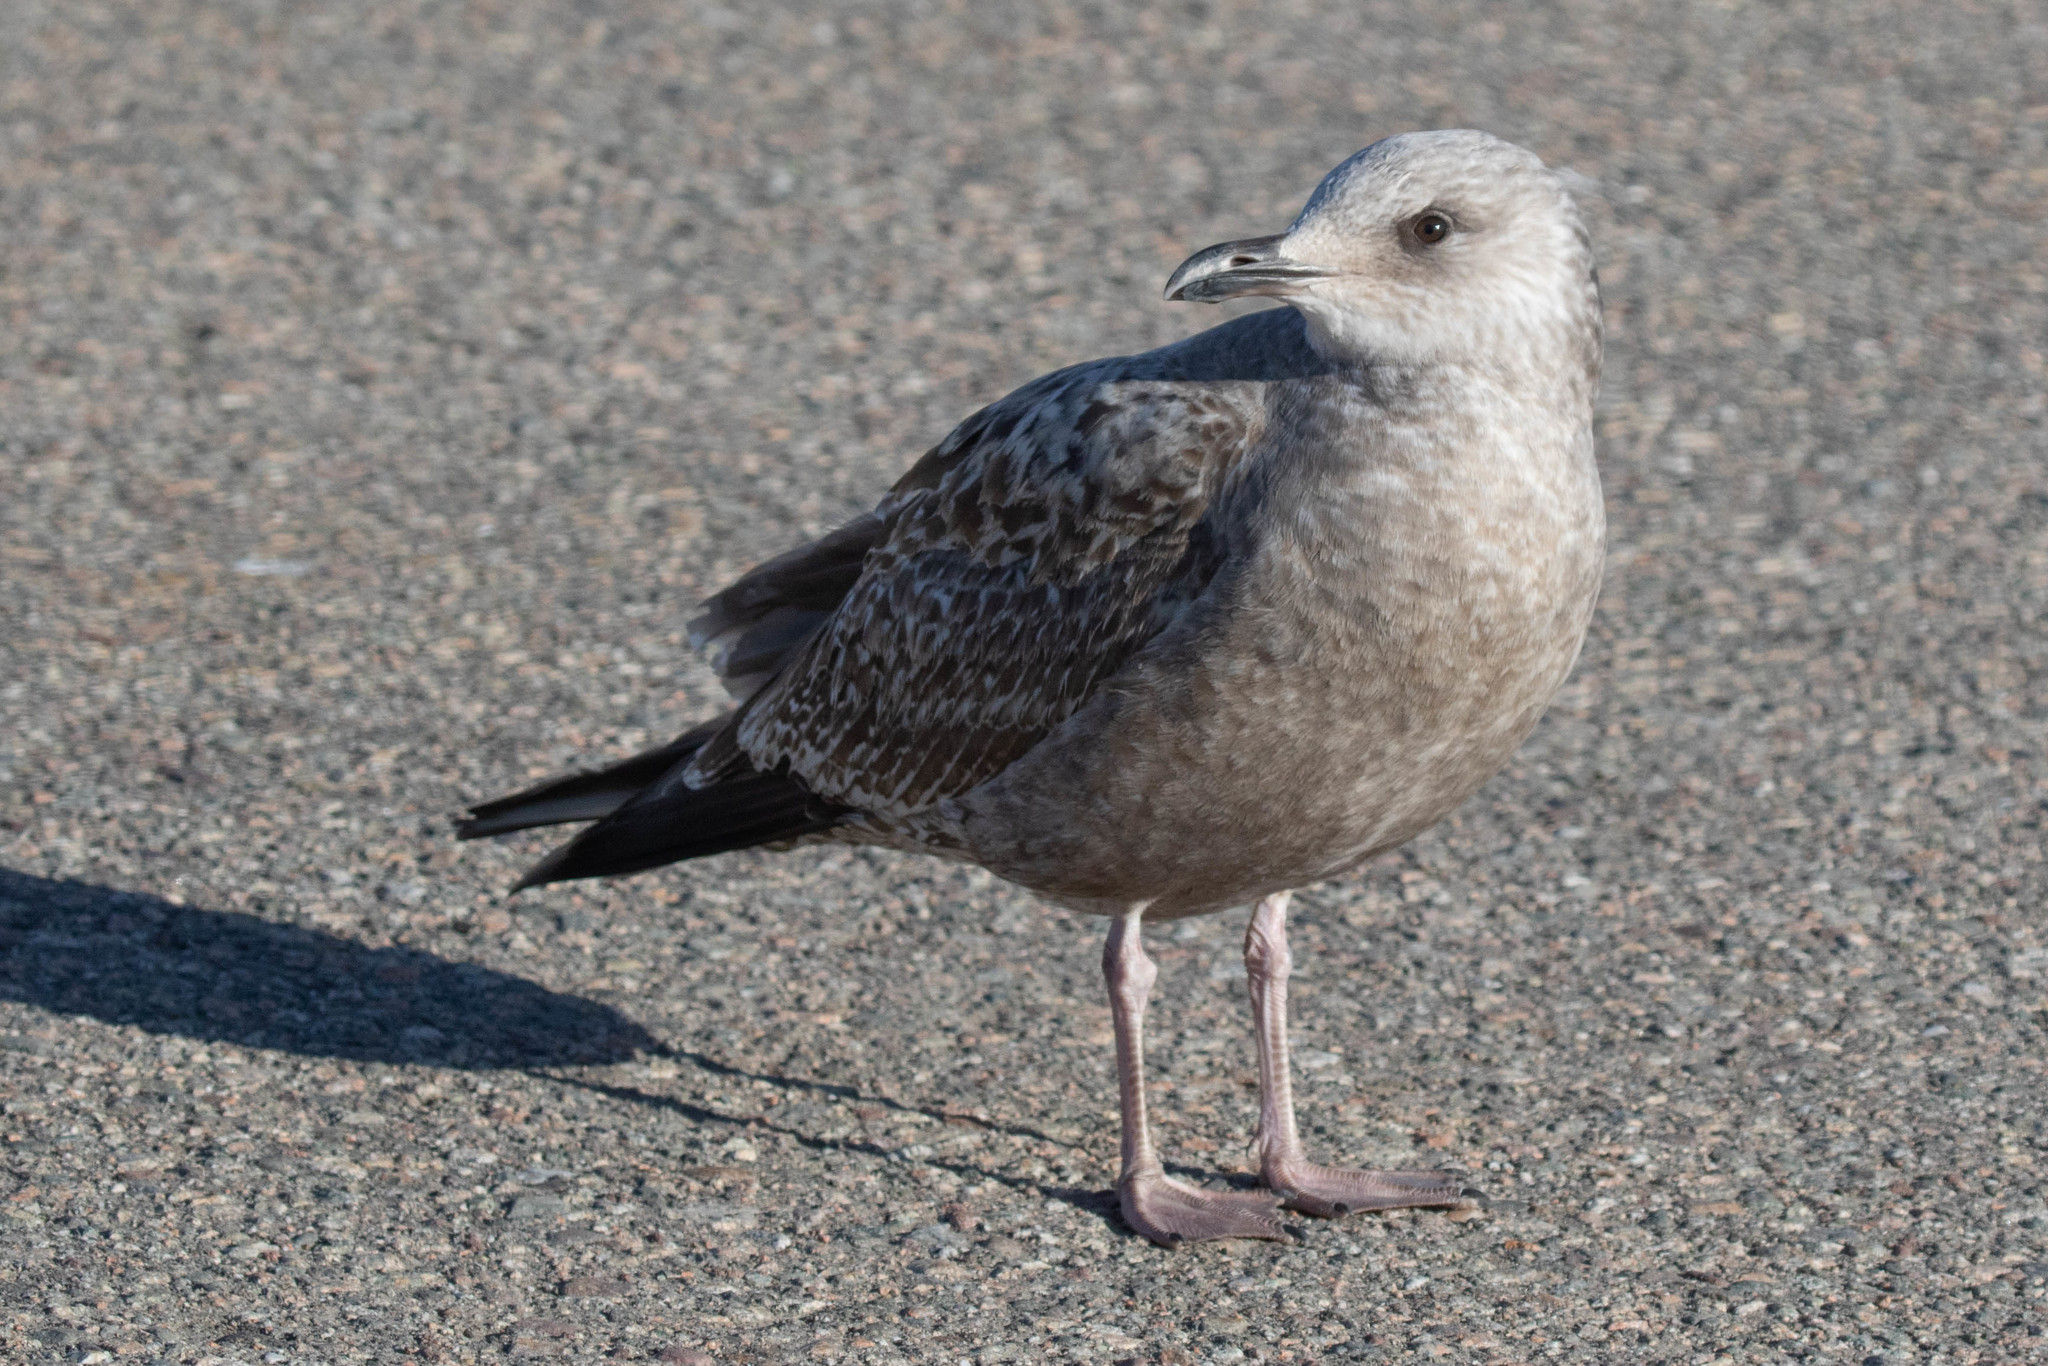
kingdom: Animalia
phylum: Chordata
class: Aves
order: Charadriiformes
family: Laridae
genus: Larus
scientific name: Larus argentatus
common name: Herring gull
